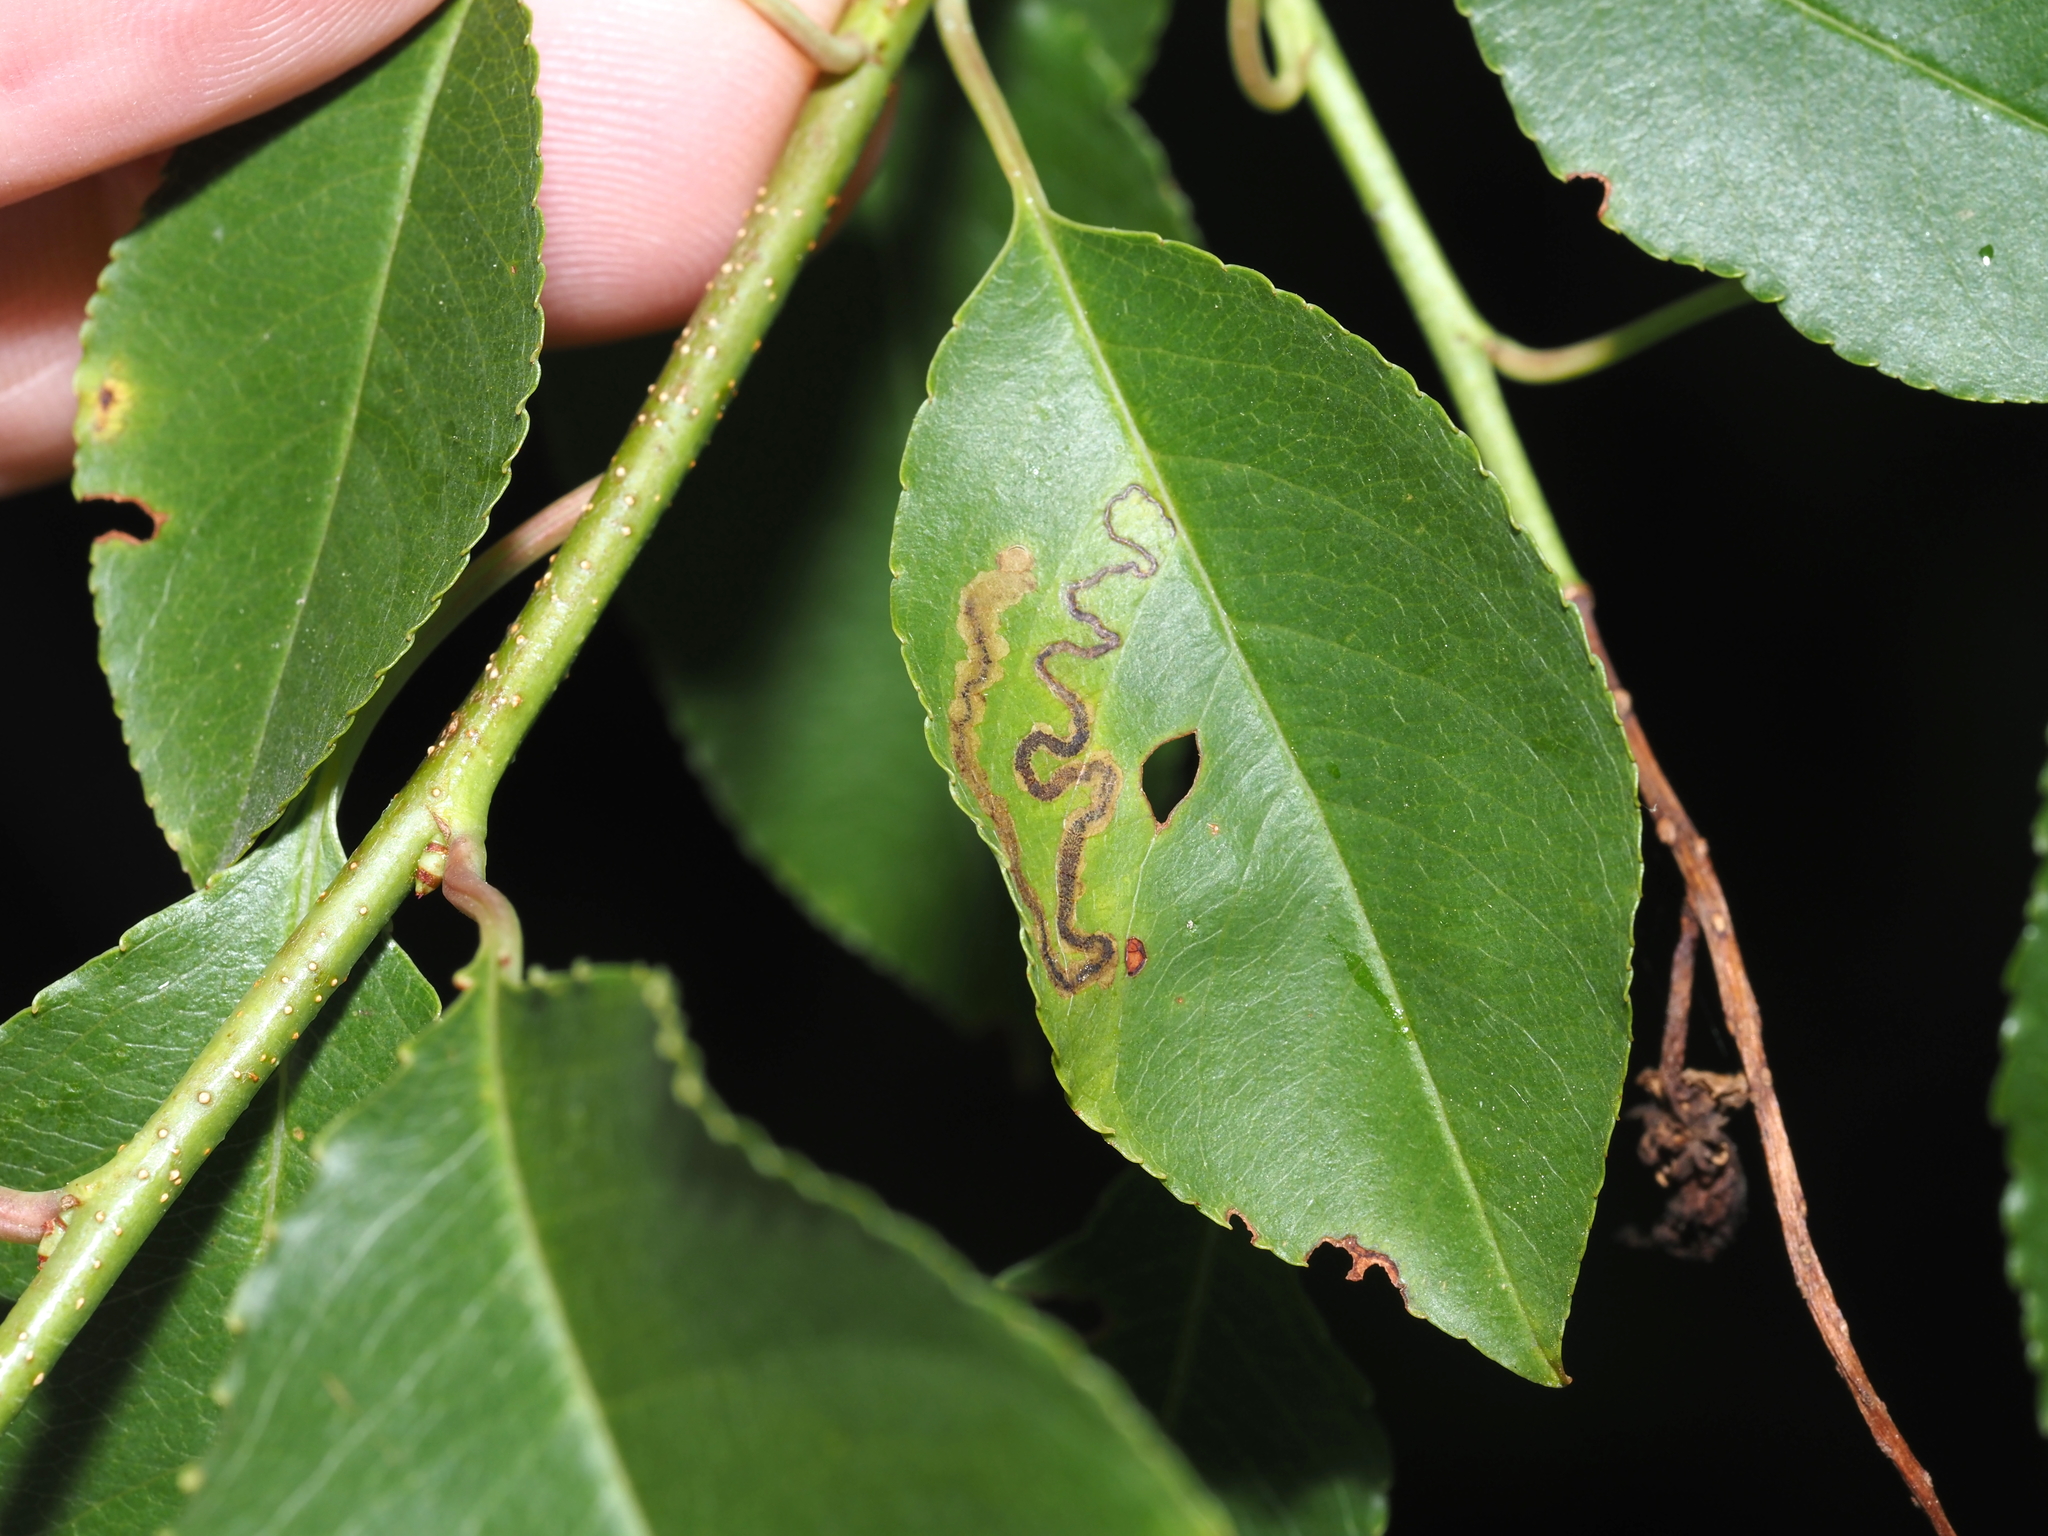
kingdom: Animalia
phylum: Arthropoda
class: Insecta
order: Lepidoptera
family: Nepticulidae
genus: Stigmella
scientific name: Stigmella prunifoliella
